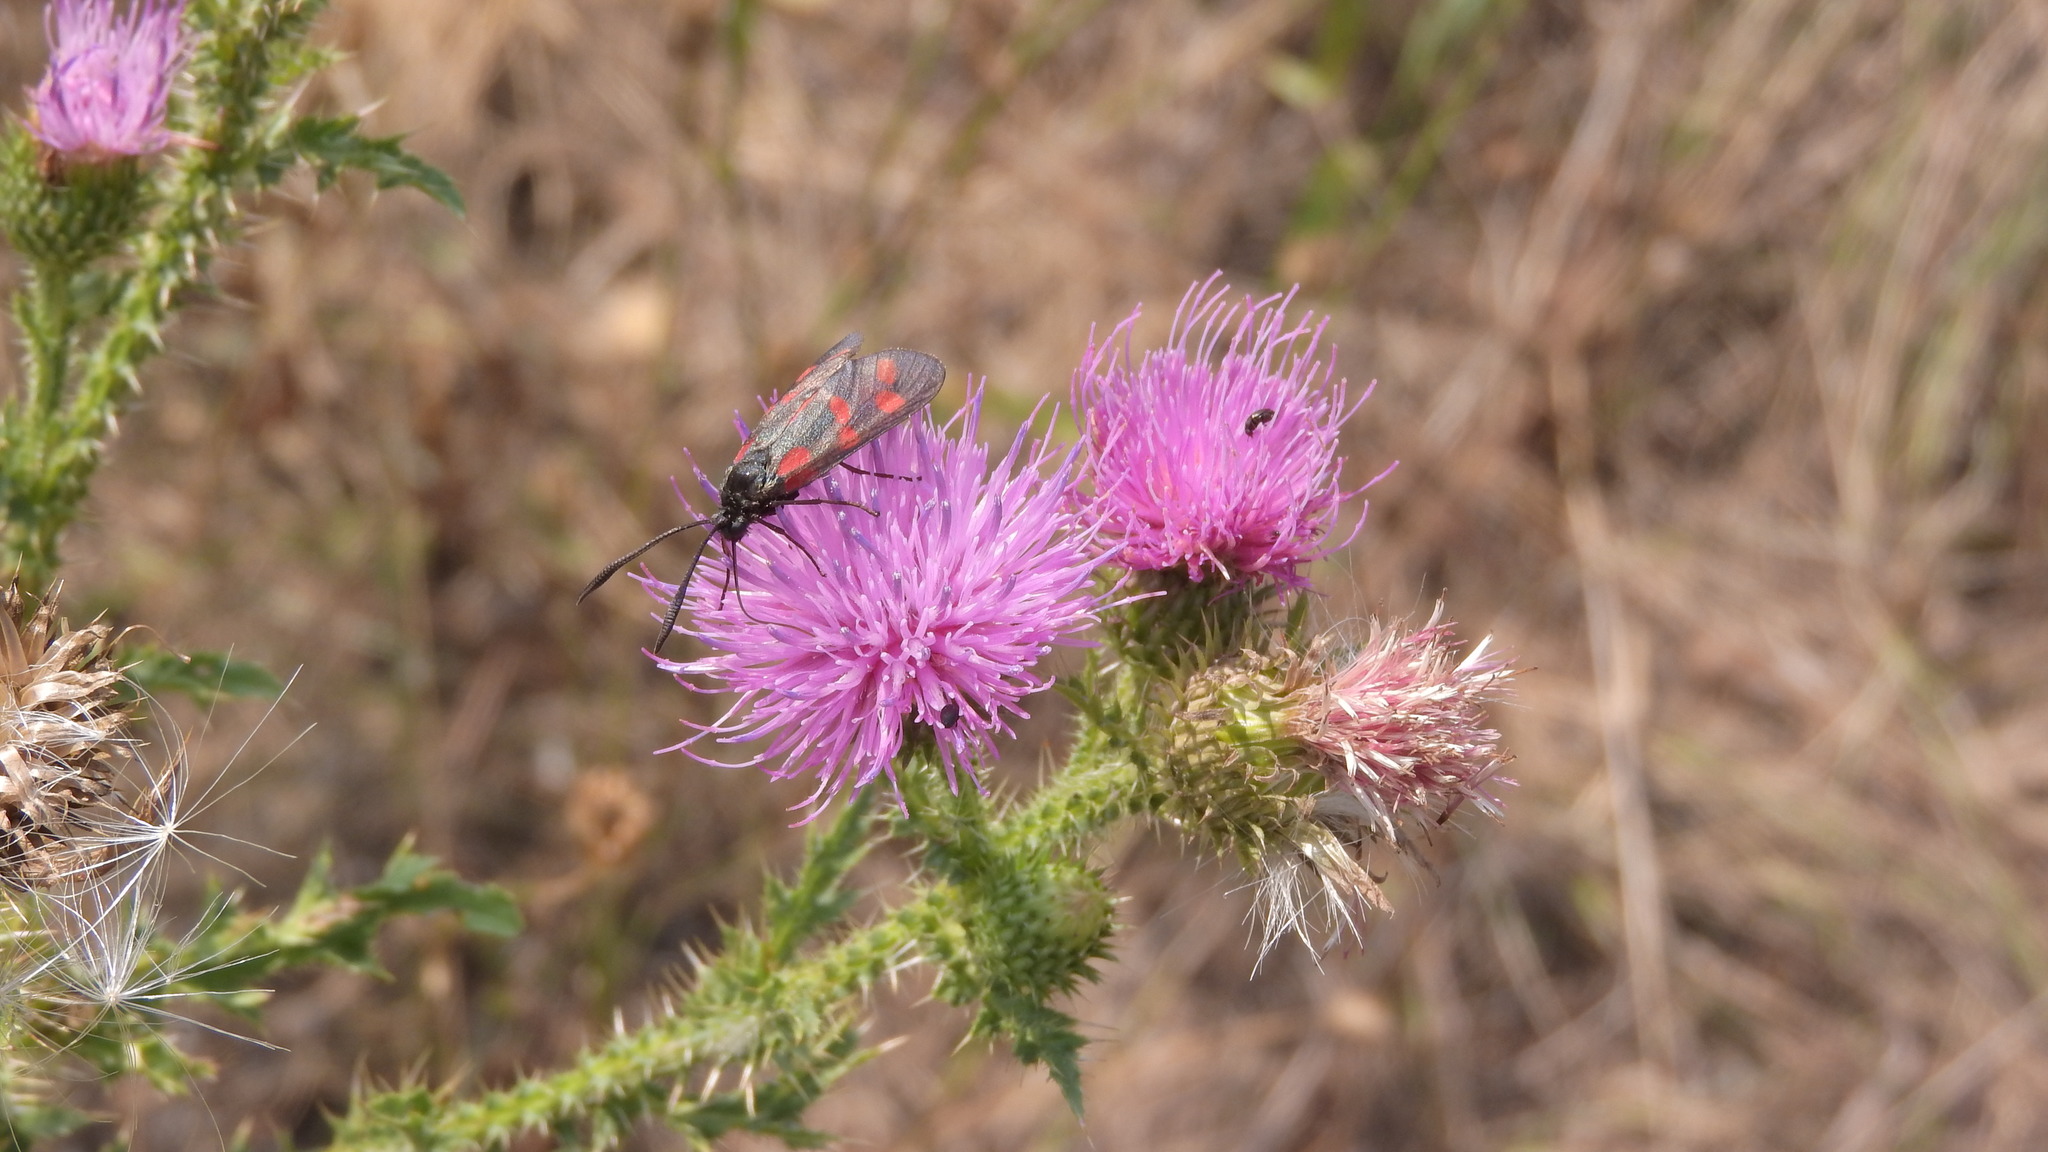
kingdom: Animalia
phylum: Arthropoda
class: Insecta
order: Lepidoptera
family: Zygaenidae
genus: Zygaena
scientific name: Zygaena filipendulae
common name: Six-spot burnet
